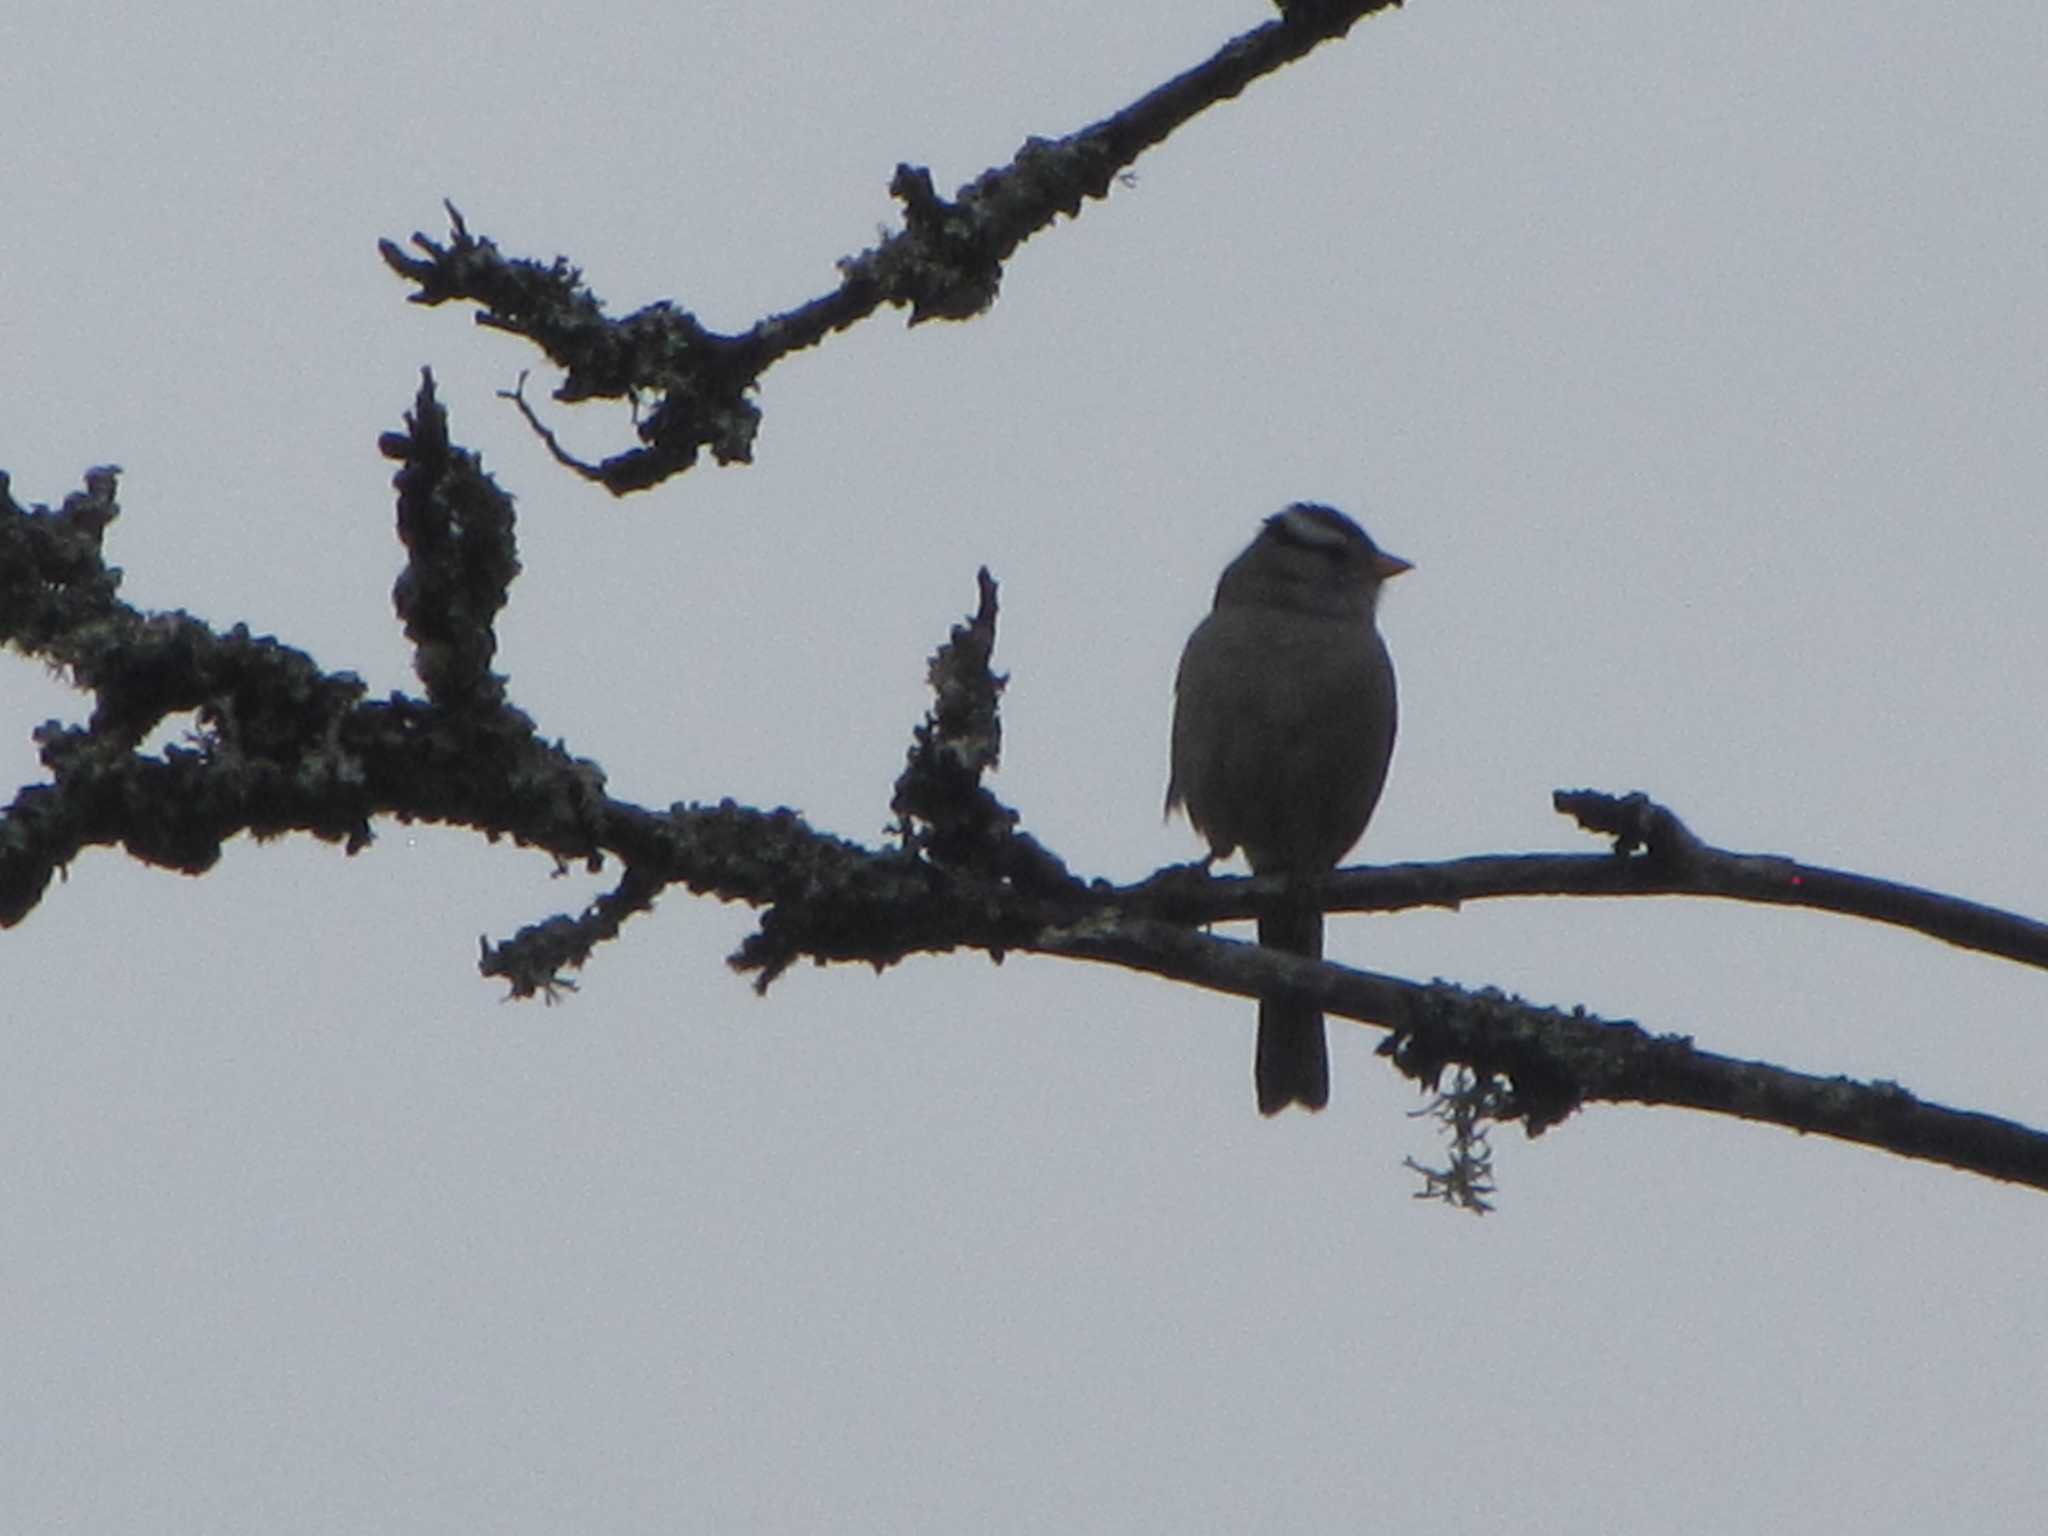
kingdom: Animalia
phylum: Chordata
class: Aves
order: Passeriformes
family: Passerellidae
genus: Zonotrichia
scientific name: Zonotrichia leucophrys
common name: White-crowned sparrow
